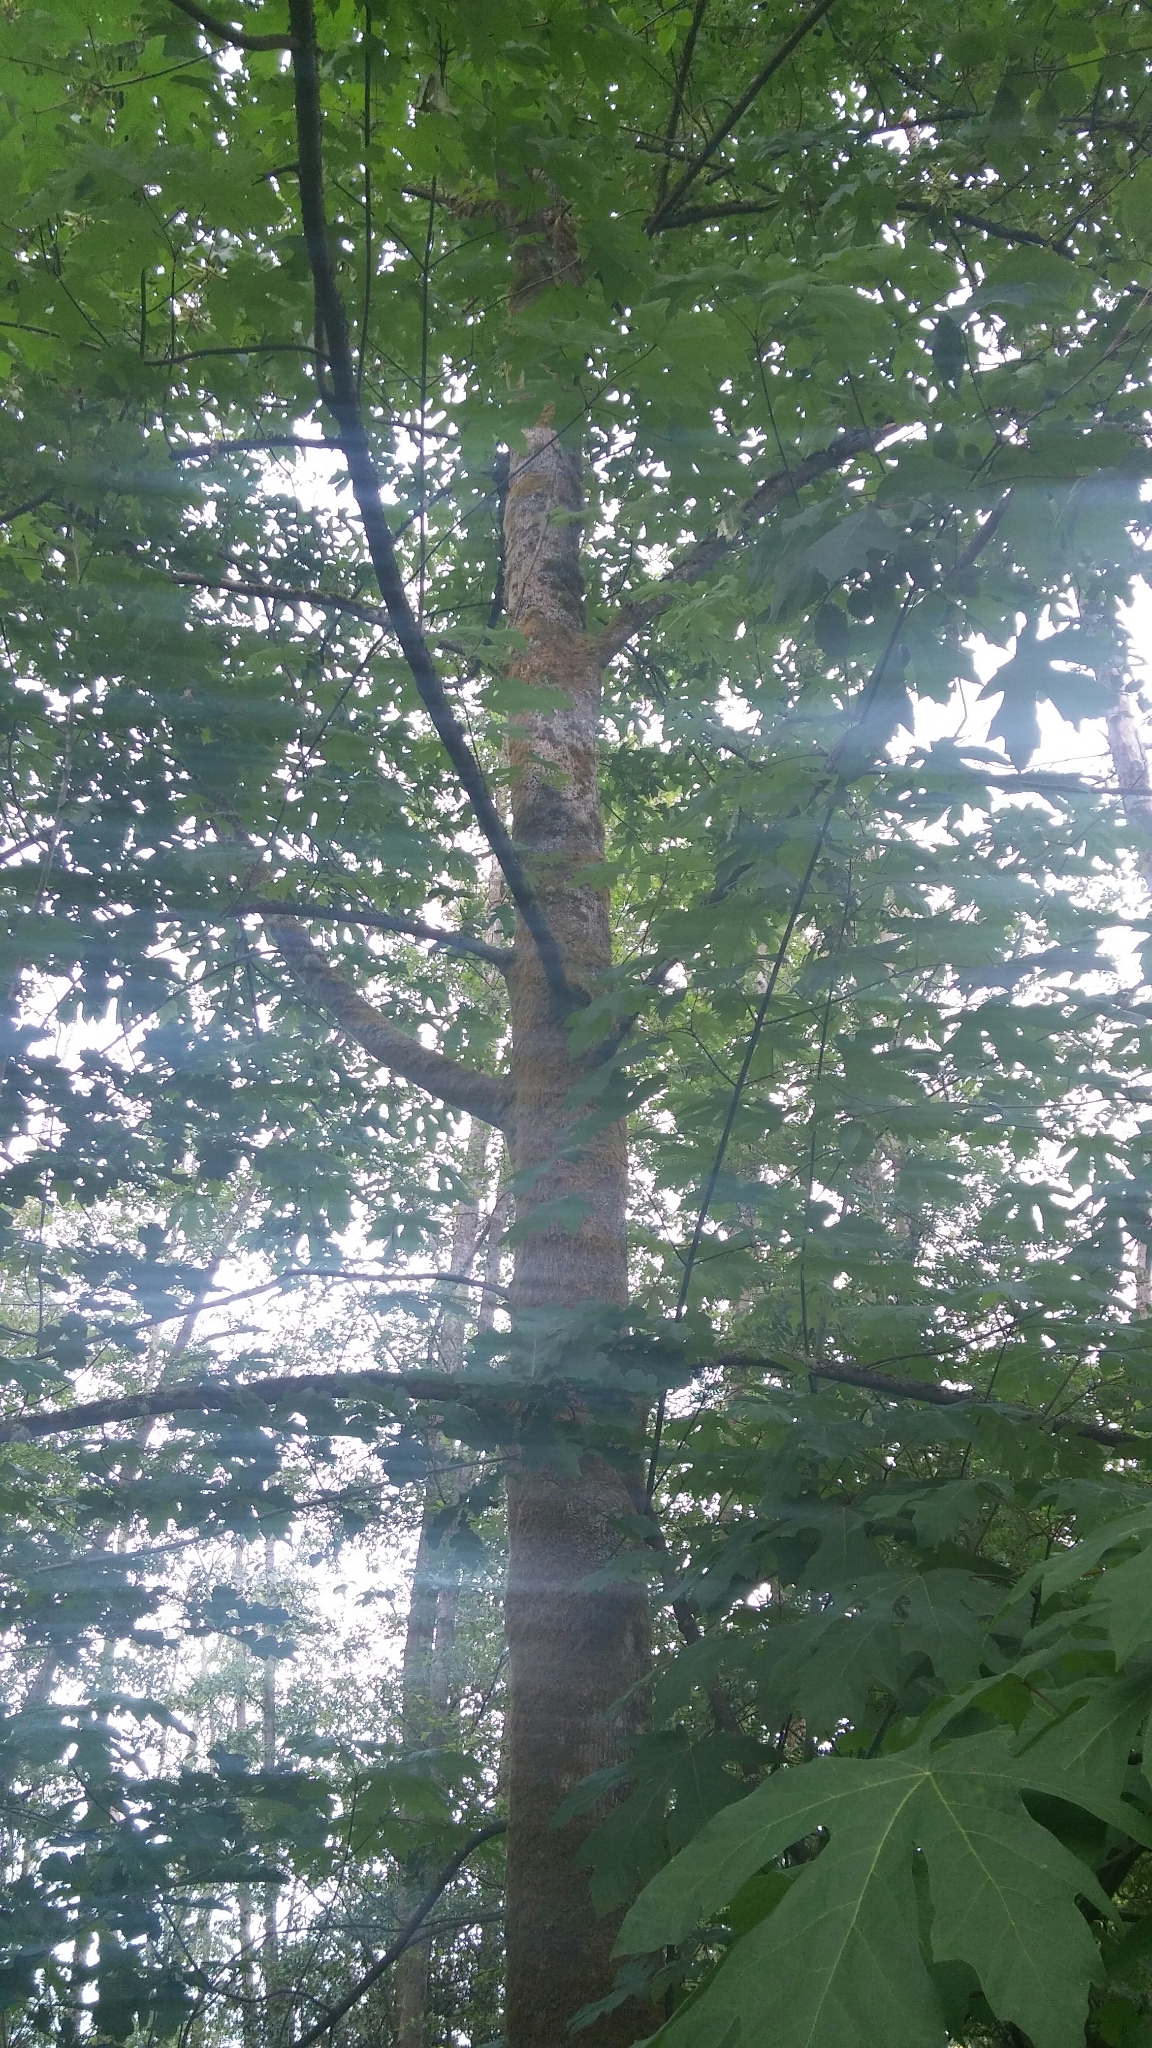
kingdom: Plantae
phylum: Tracheophyta
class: Magnoliopsida
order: Sapindales
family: Sapindaceae
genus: Acer
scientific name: Acer macrophyllum
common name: Oregon maple
